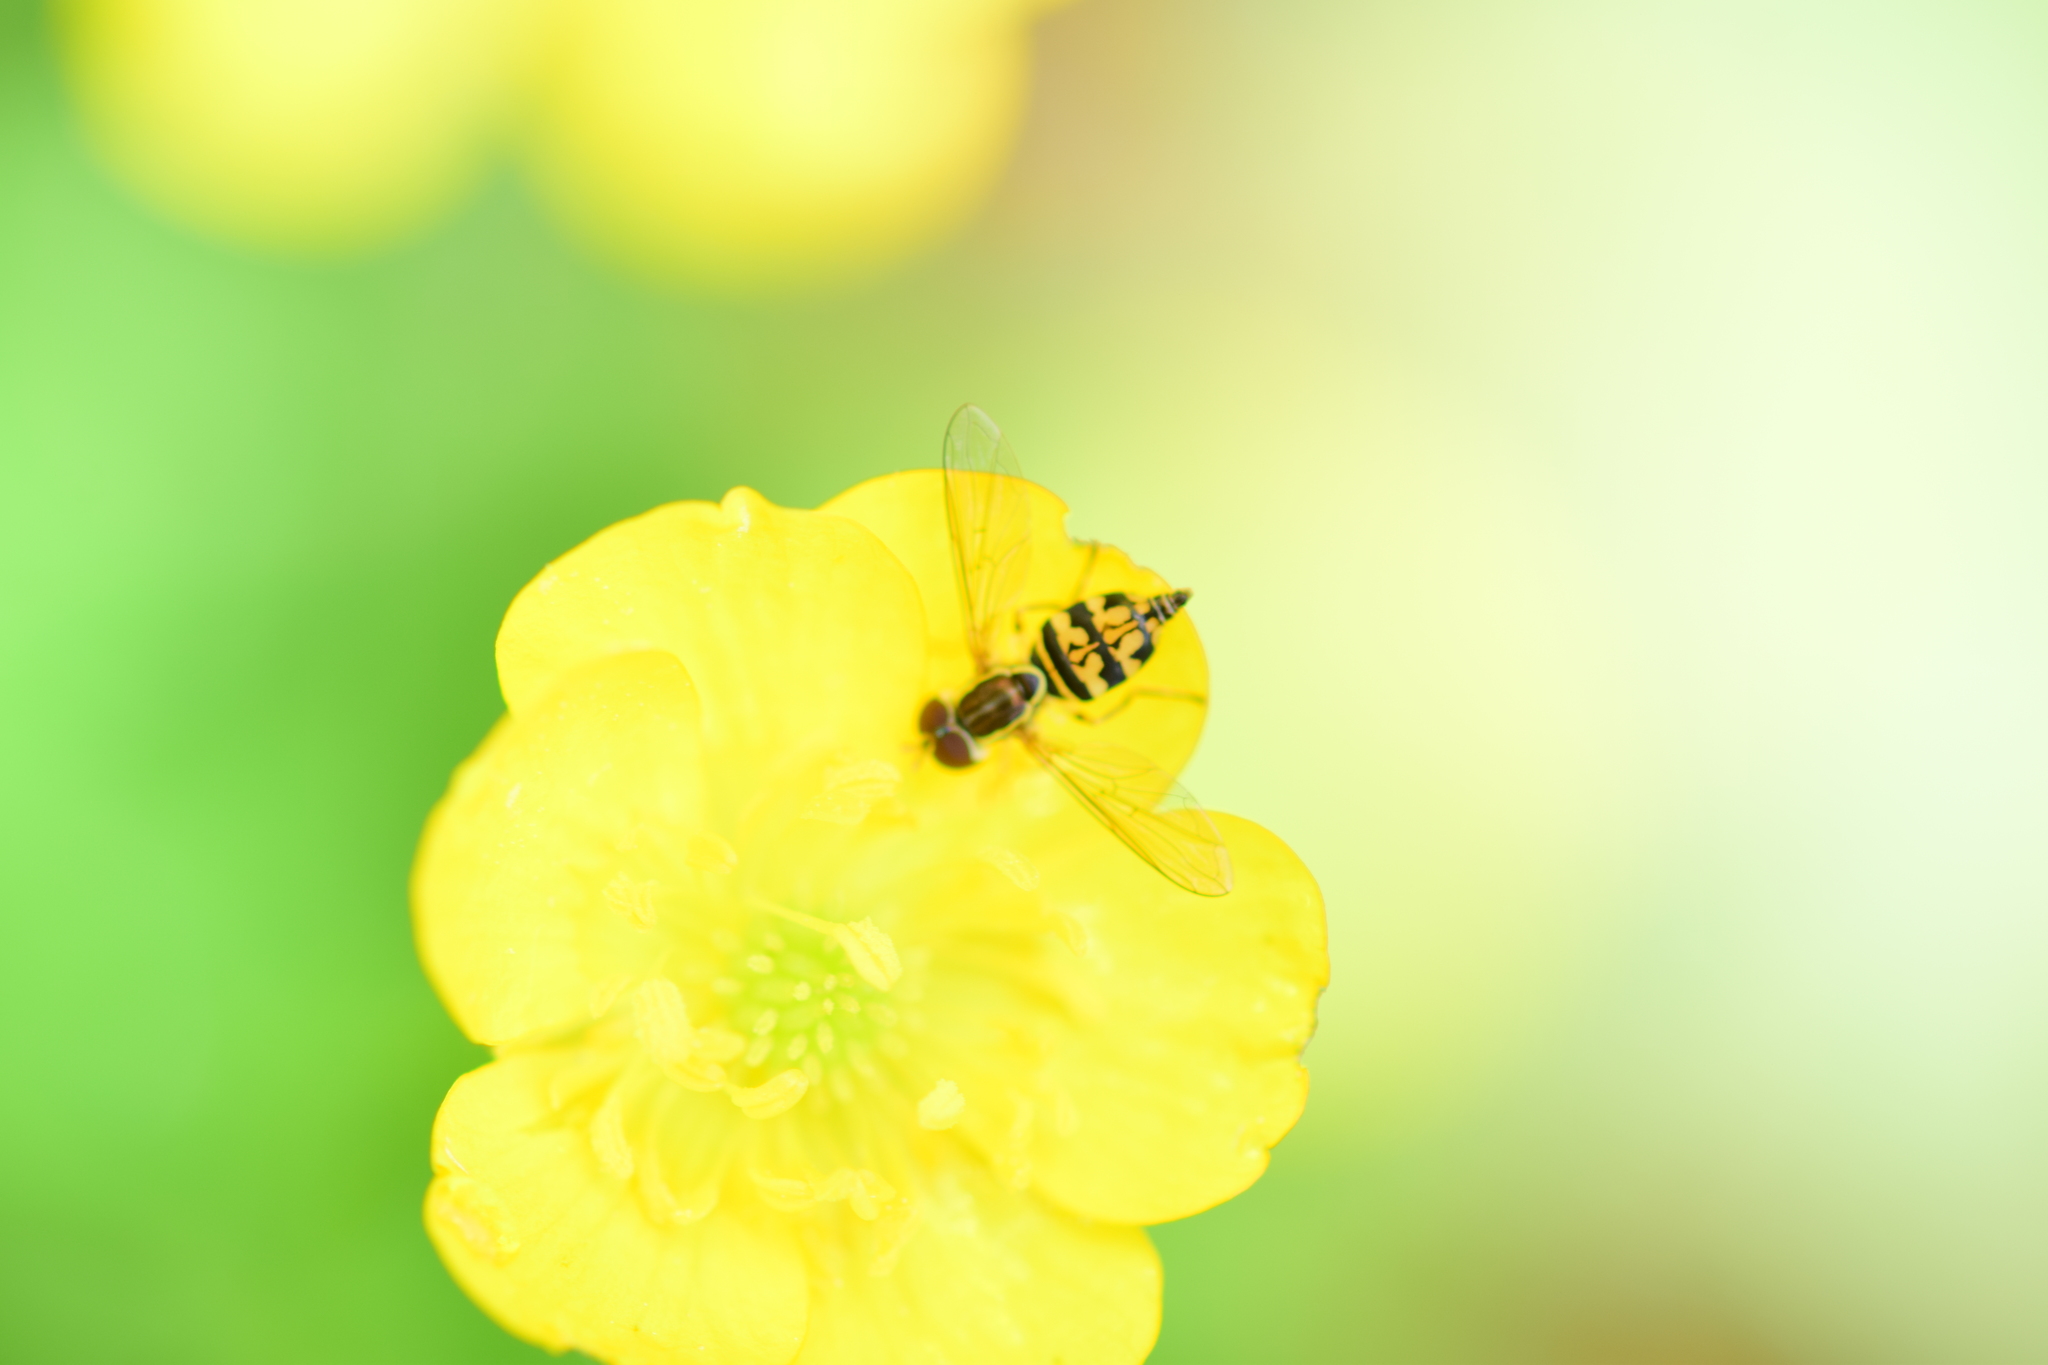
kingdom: Animalia
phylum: Arthropoda
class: Insecta
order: Diptera
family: Syrphidae
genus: Toxomerus
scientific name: Toxomerus geminatus
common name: Eastern calligrapher
